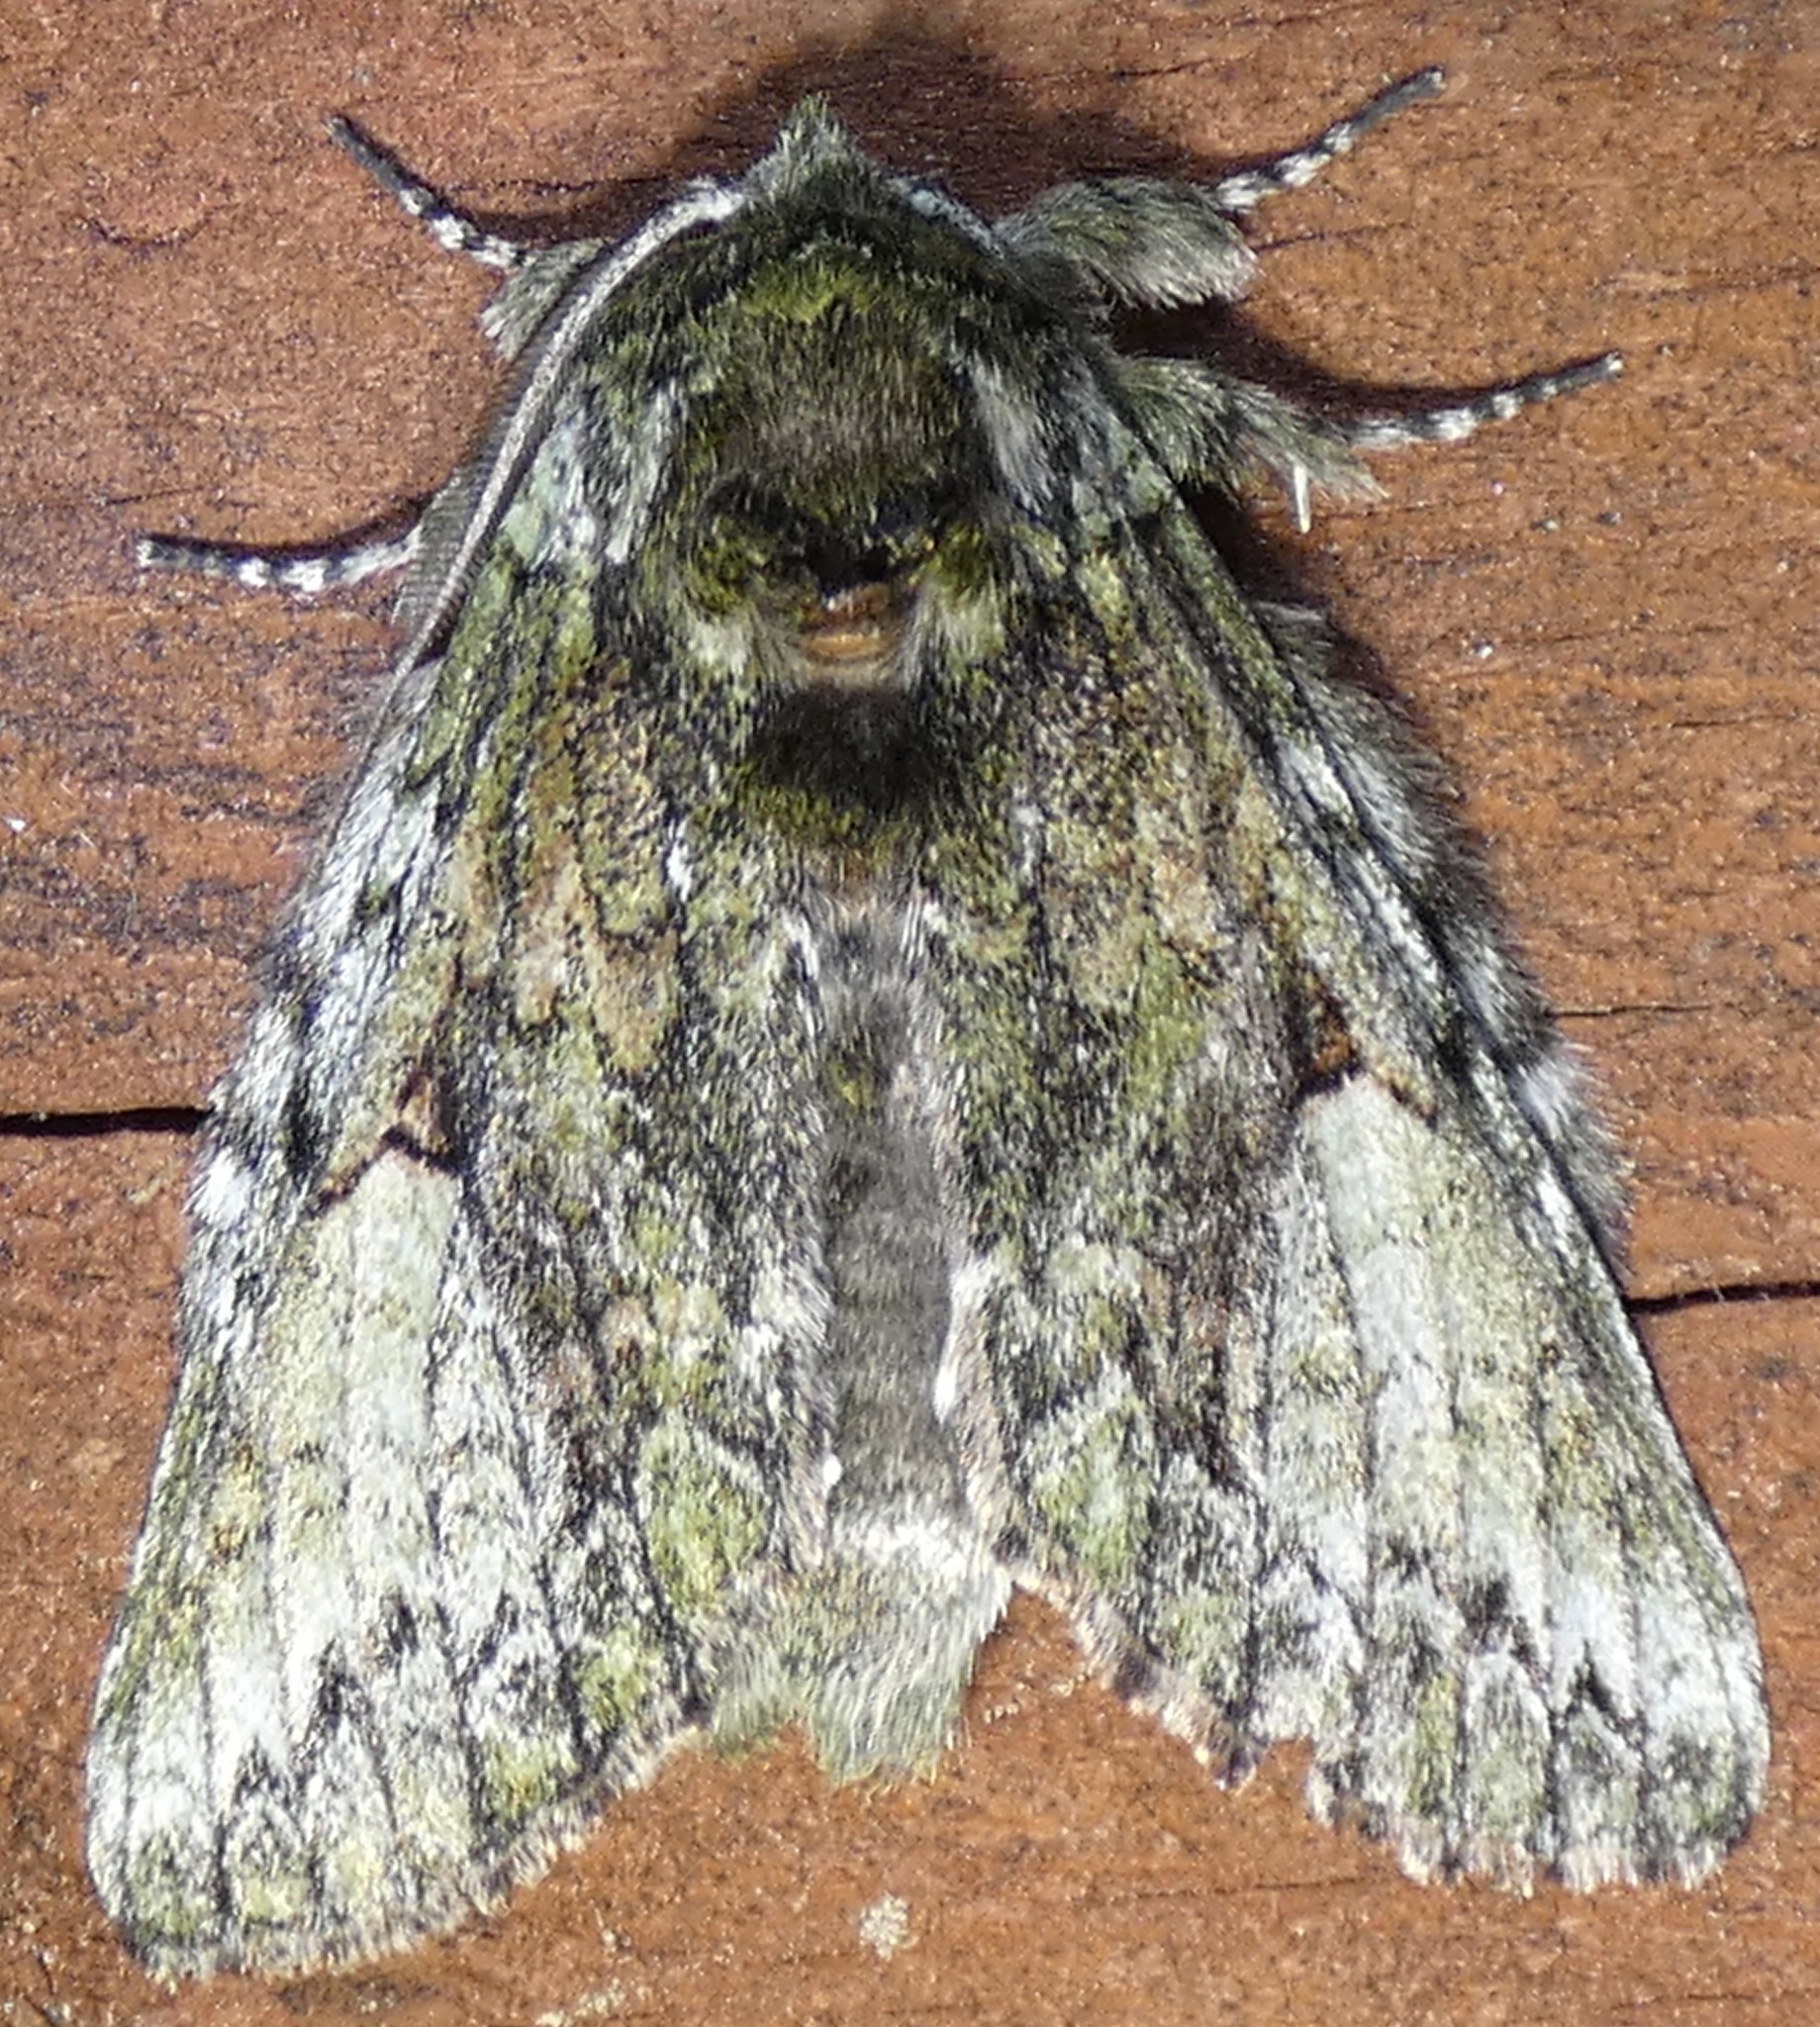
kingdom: Animalia
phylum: Arthropoda
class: Insecta
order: Lepidoptera
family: Notodontidae
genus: Heterocampa
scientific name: Heterocampa
